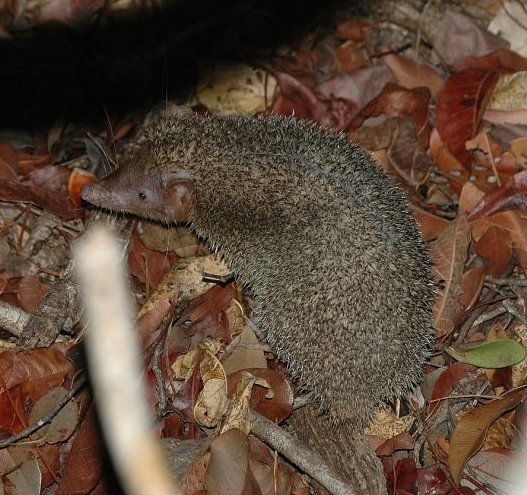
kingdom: Animalia
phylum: Chordata
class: Mammalia
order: Afrosoricida
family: Tenrecidae
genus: Setifer
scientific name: Setifer setosus
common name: Greater hedgehog tenrec
